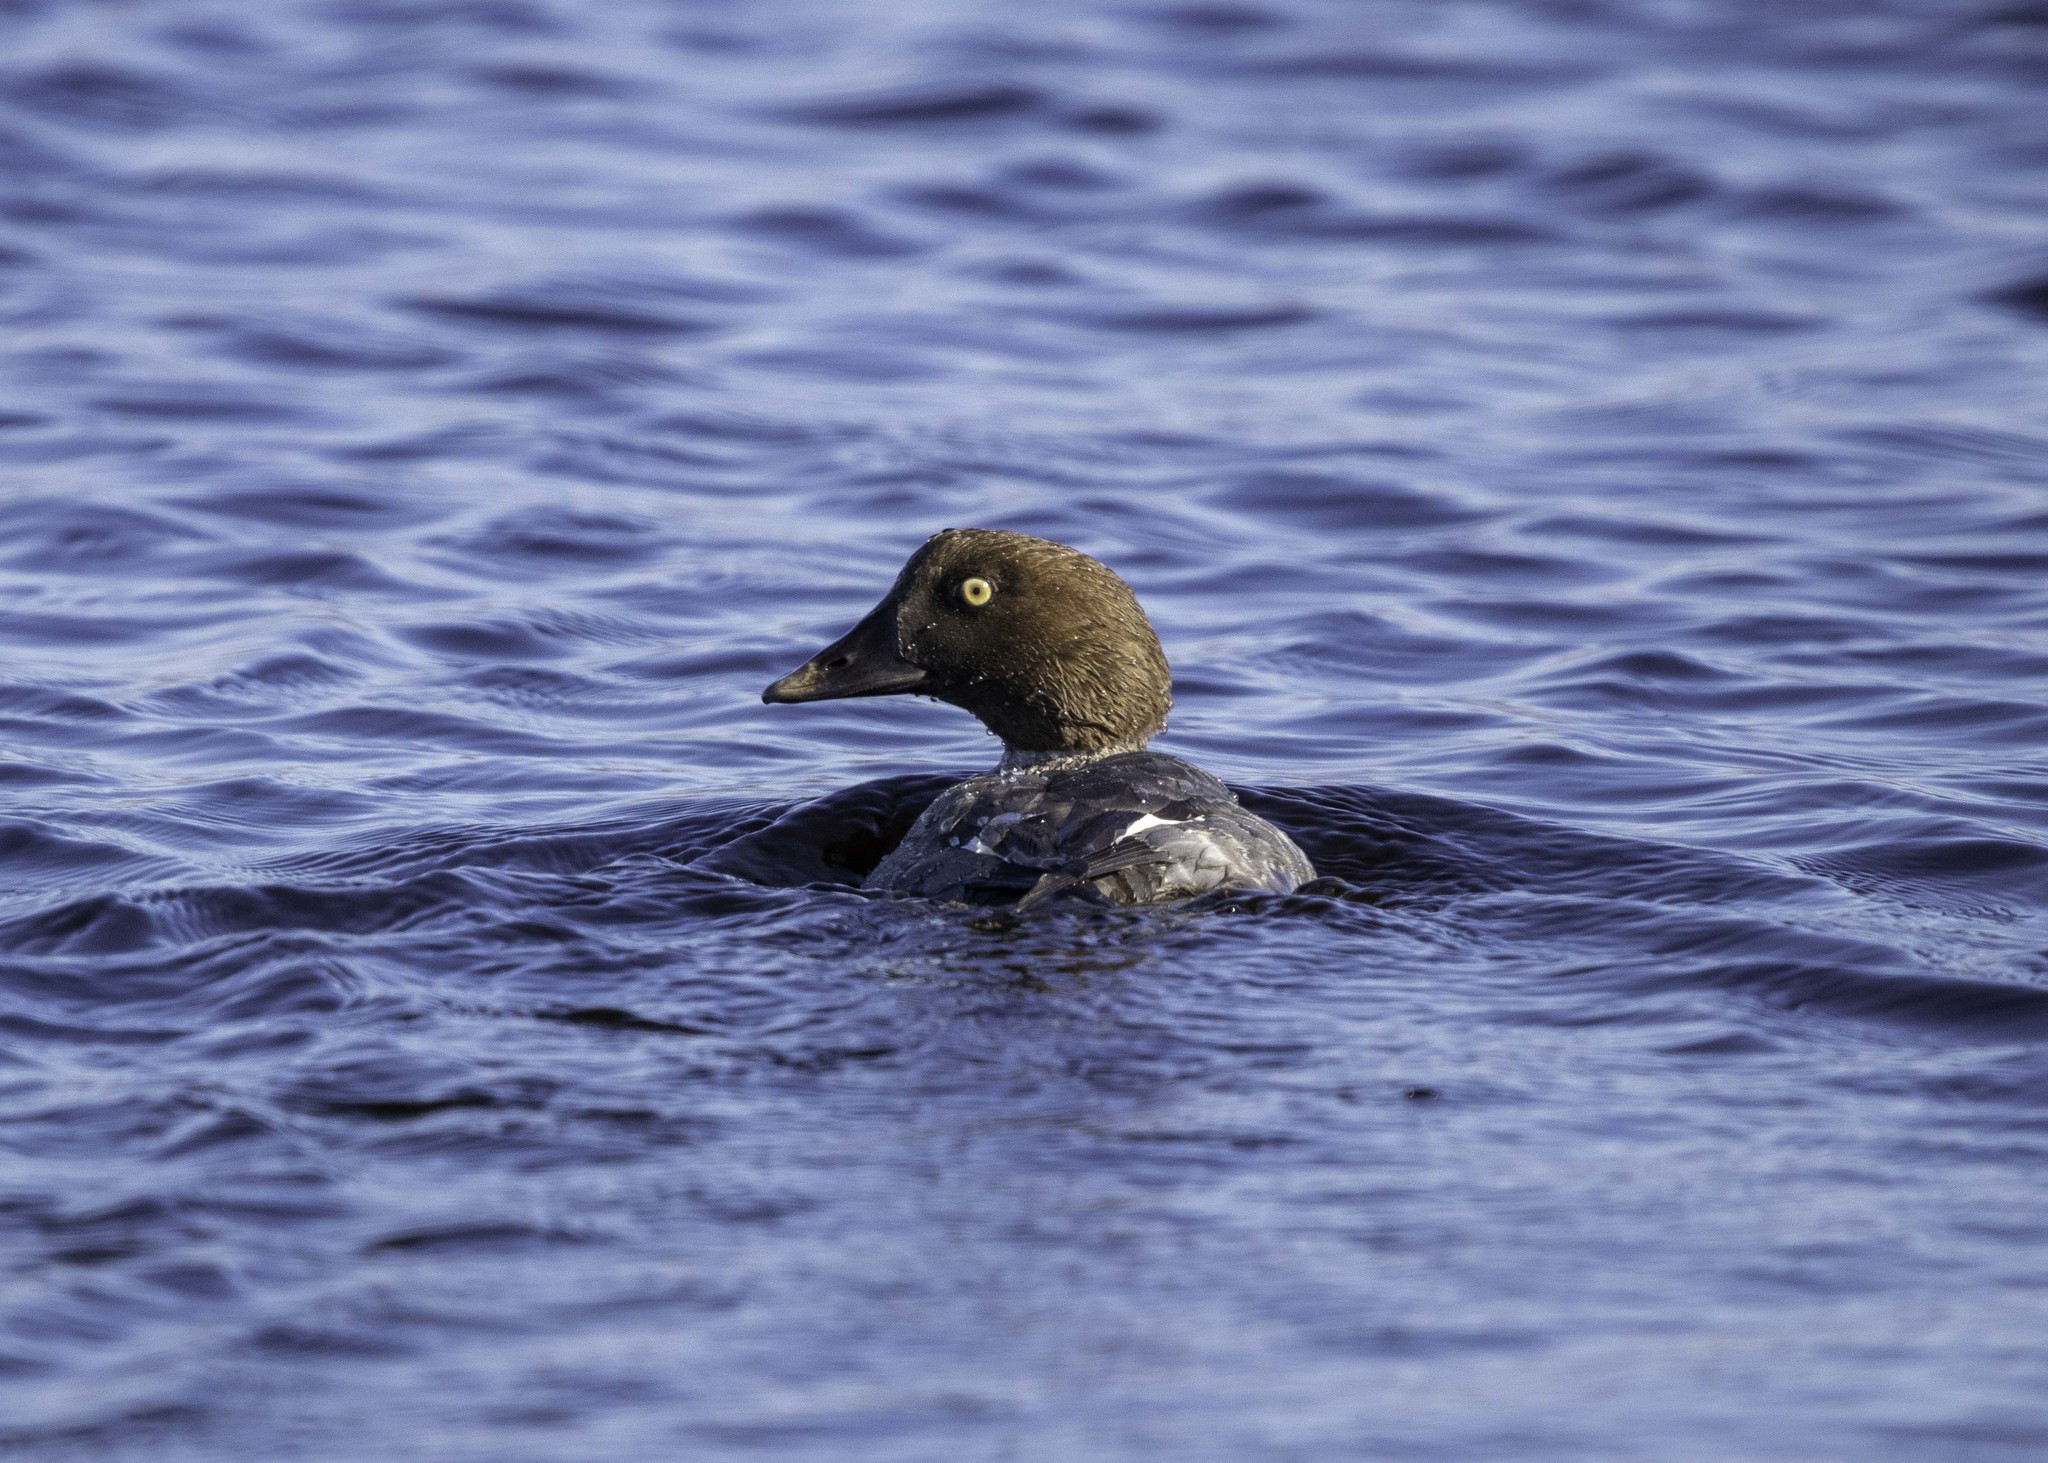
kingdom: Animalia
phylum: Chordata
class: Aves
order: Anseriformes
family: Anatidae
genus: Bucephala
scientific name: Bucephala clangula
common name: Common goldeneye
